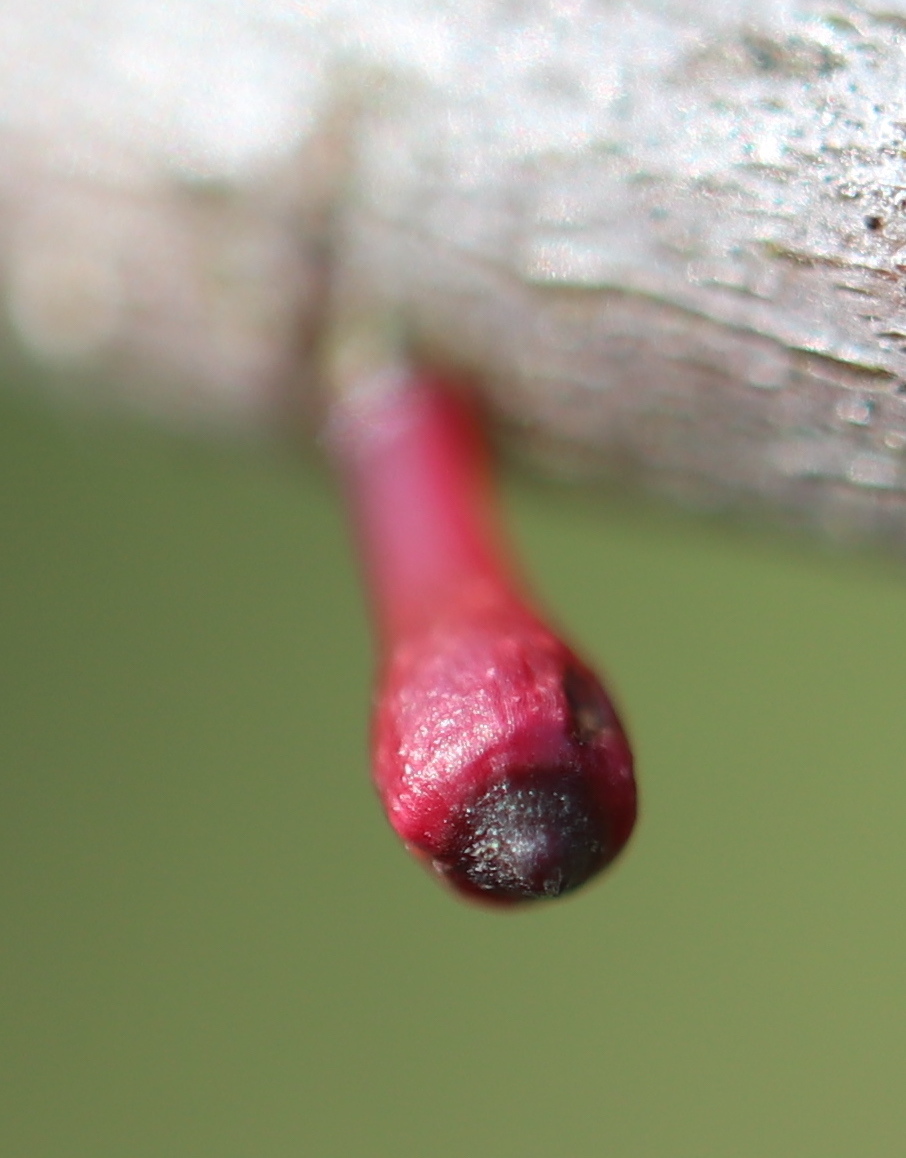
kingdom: Animalia
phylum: Arthropoda
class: Insecta
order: Hymenoptera
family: Cynipidae
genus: Callirhytis
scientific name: Callirhytis
